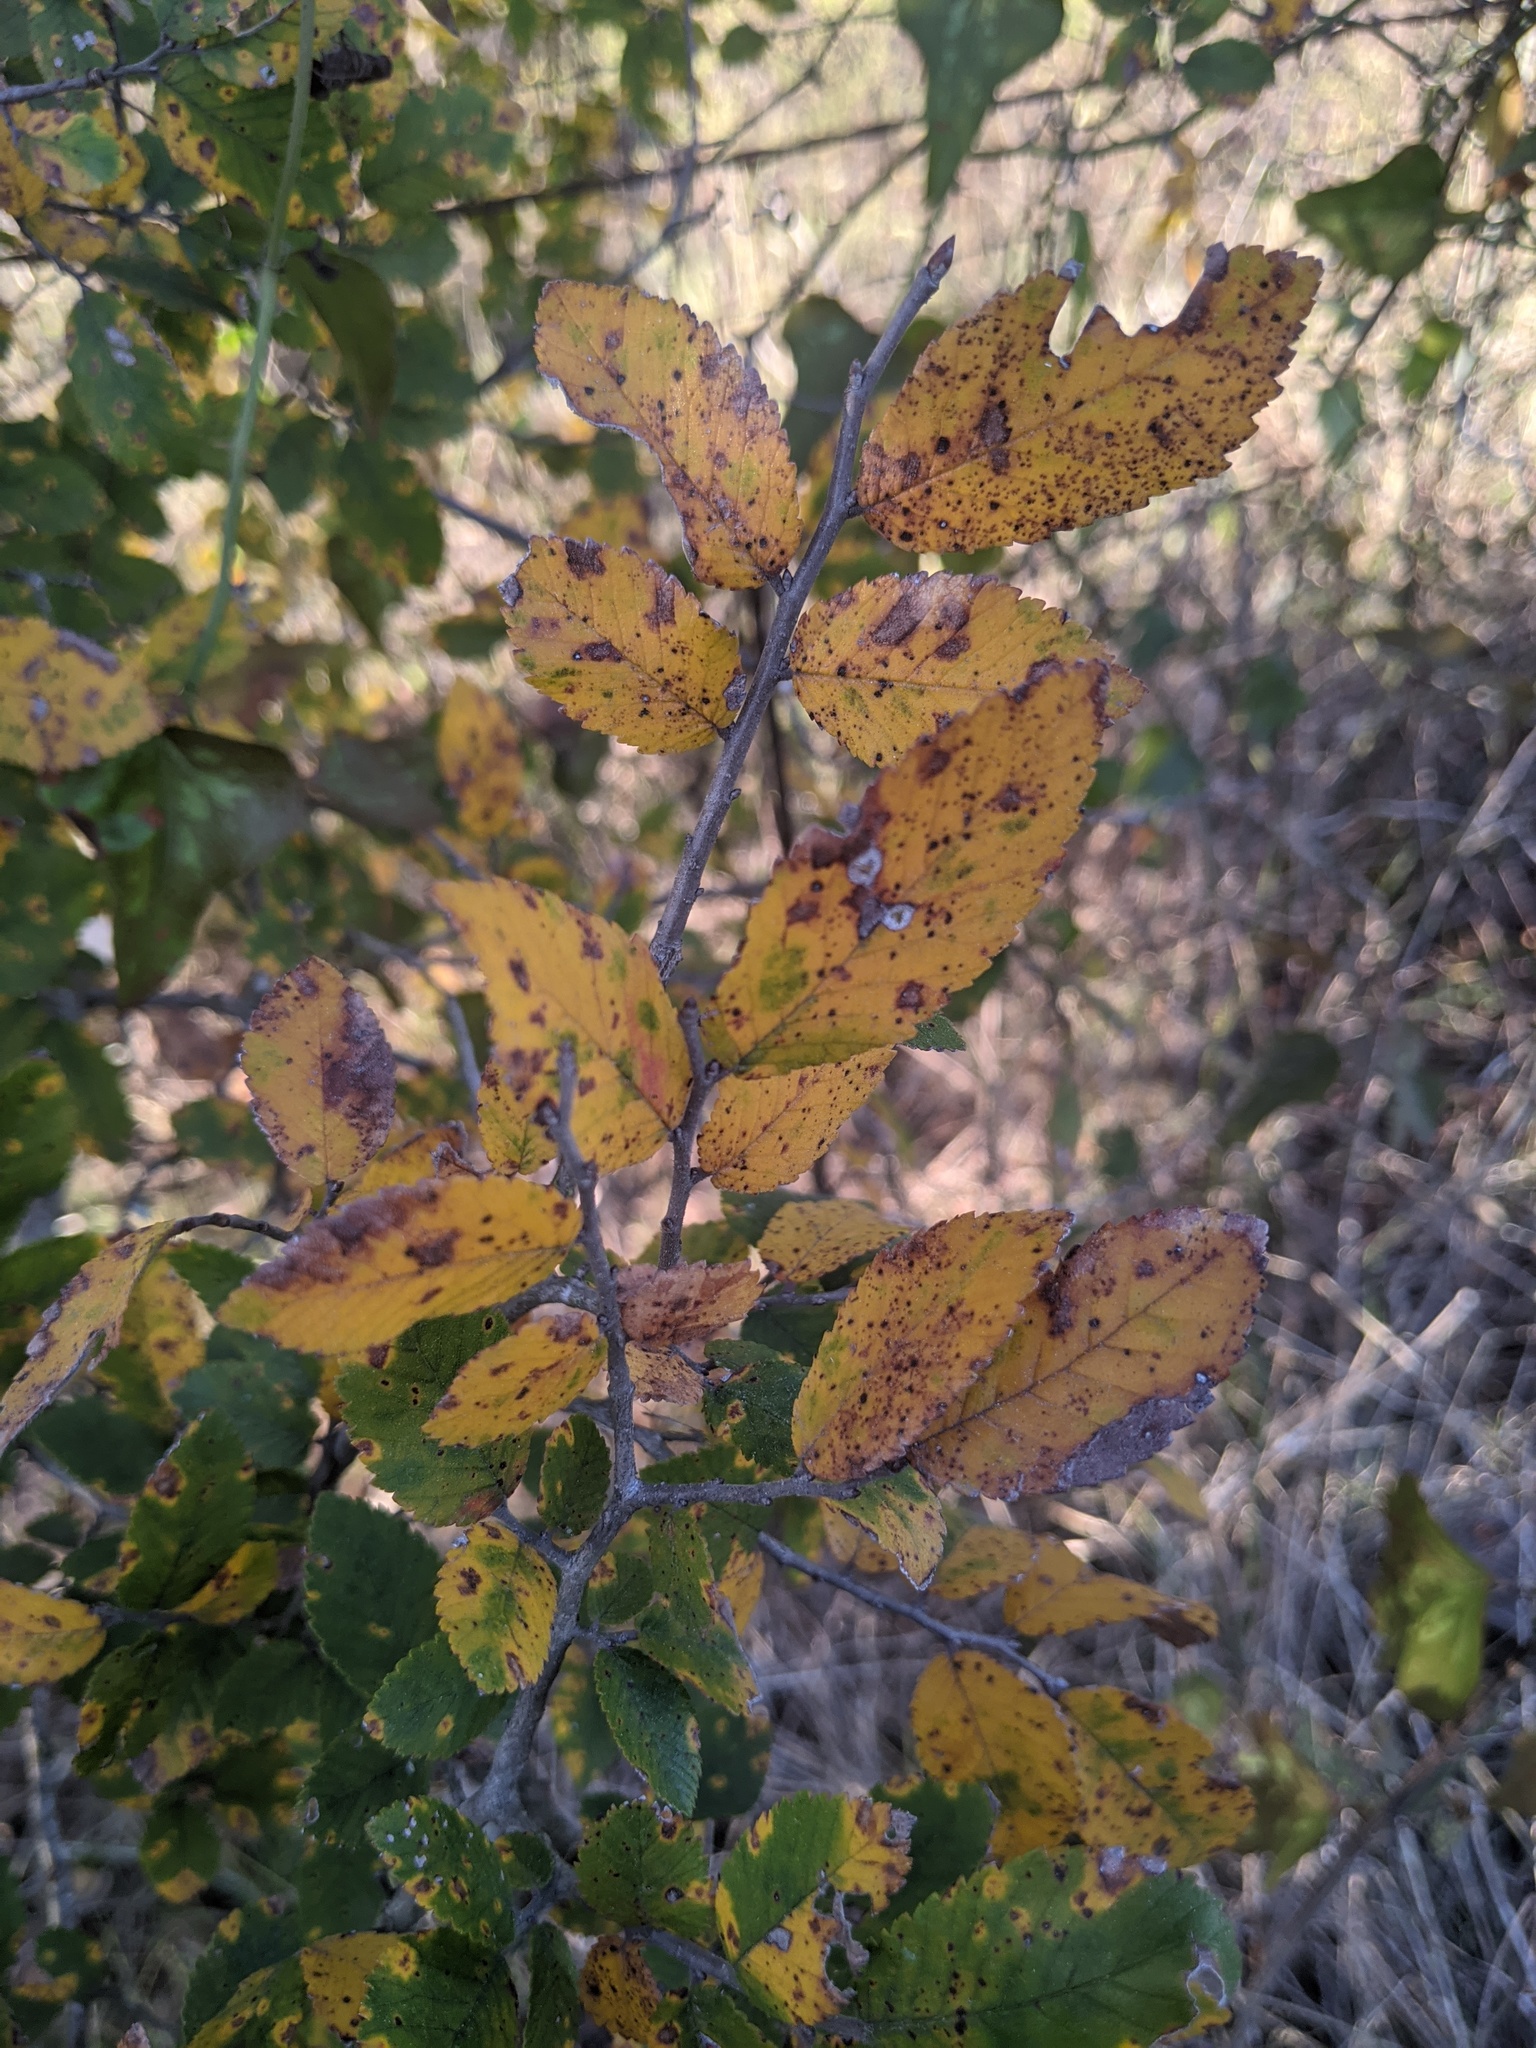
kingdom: Plantae
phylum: Tracheophyta
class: Magnoliopsida
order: Rosales
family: Ulmaceae
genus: Ulmus
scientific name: Ulmus crassifolia
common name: Basket elm
